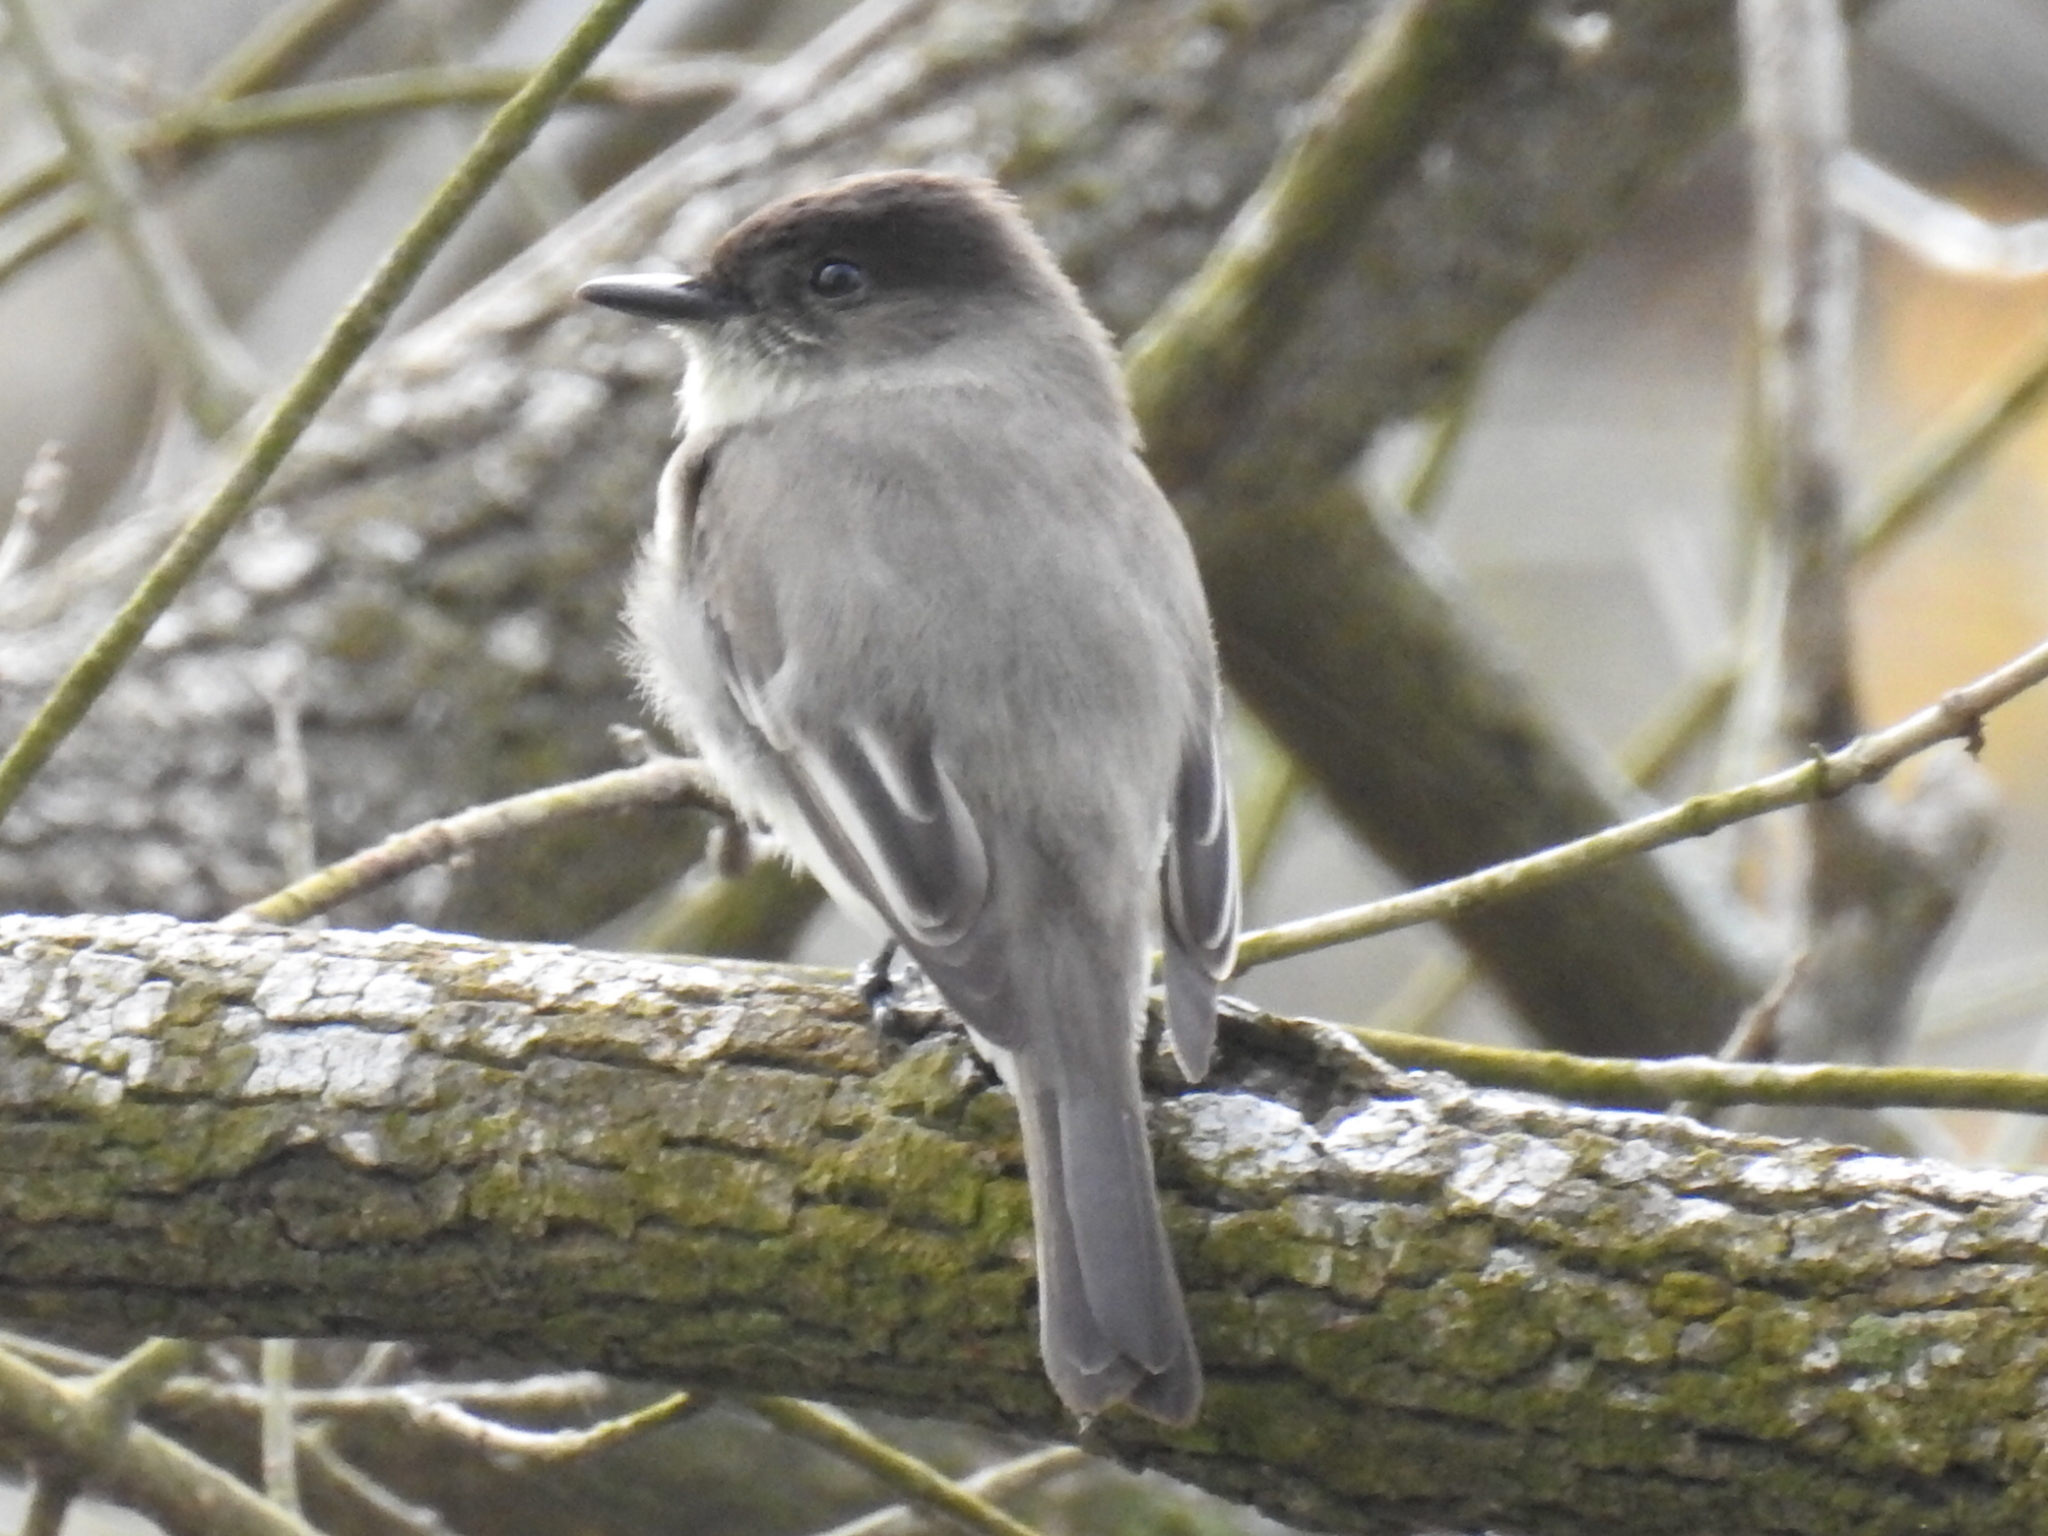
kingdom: Animalia
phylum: Chordata
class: Aves
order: Passeriformes
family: Tyrannidae
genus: Sayornis
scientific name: Sayornis phoebe
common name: Eastern phoebe
